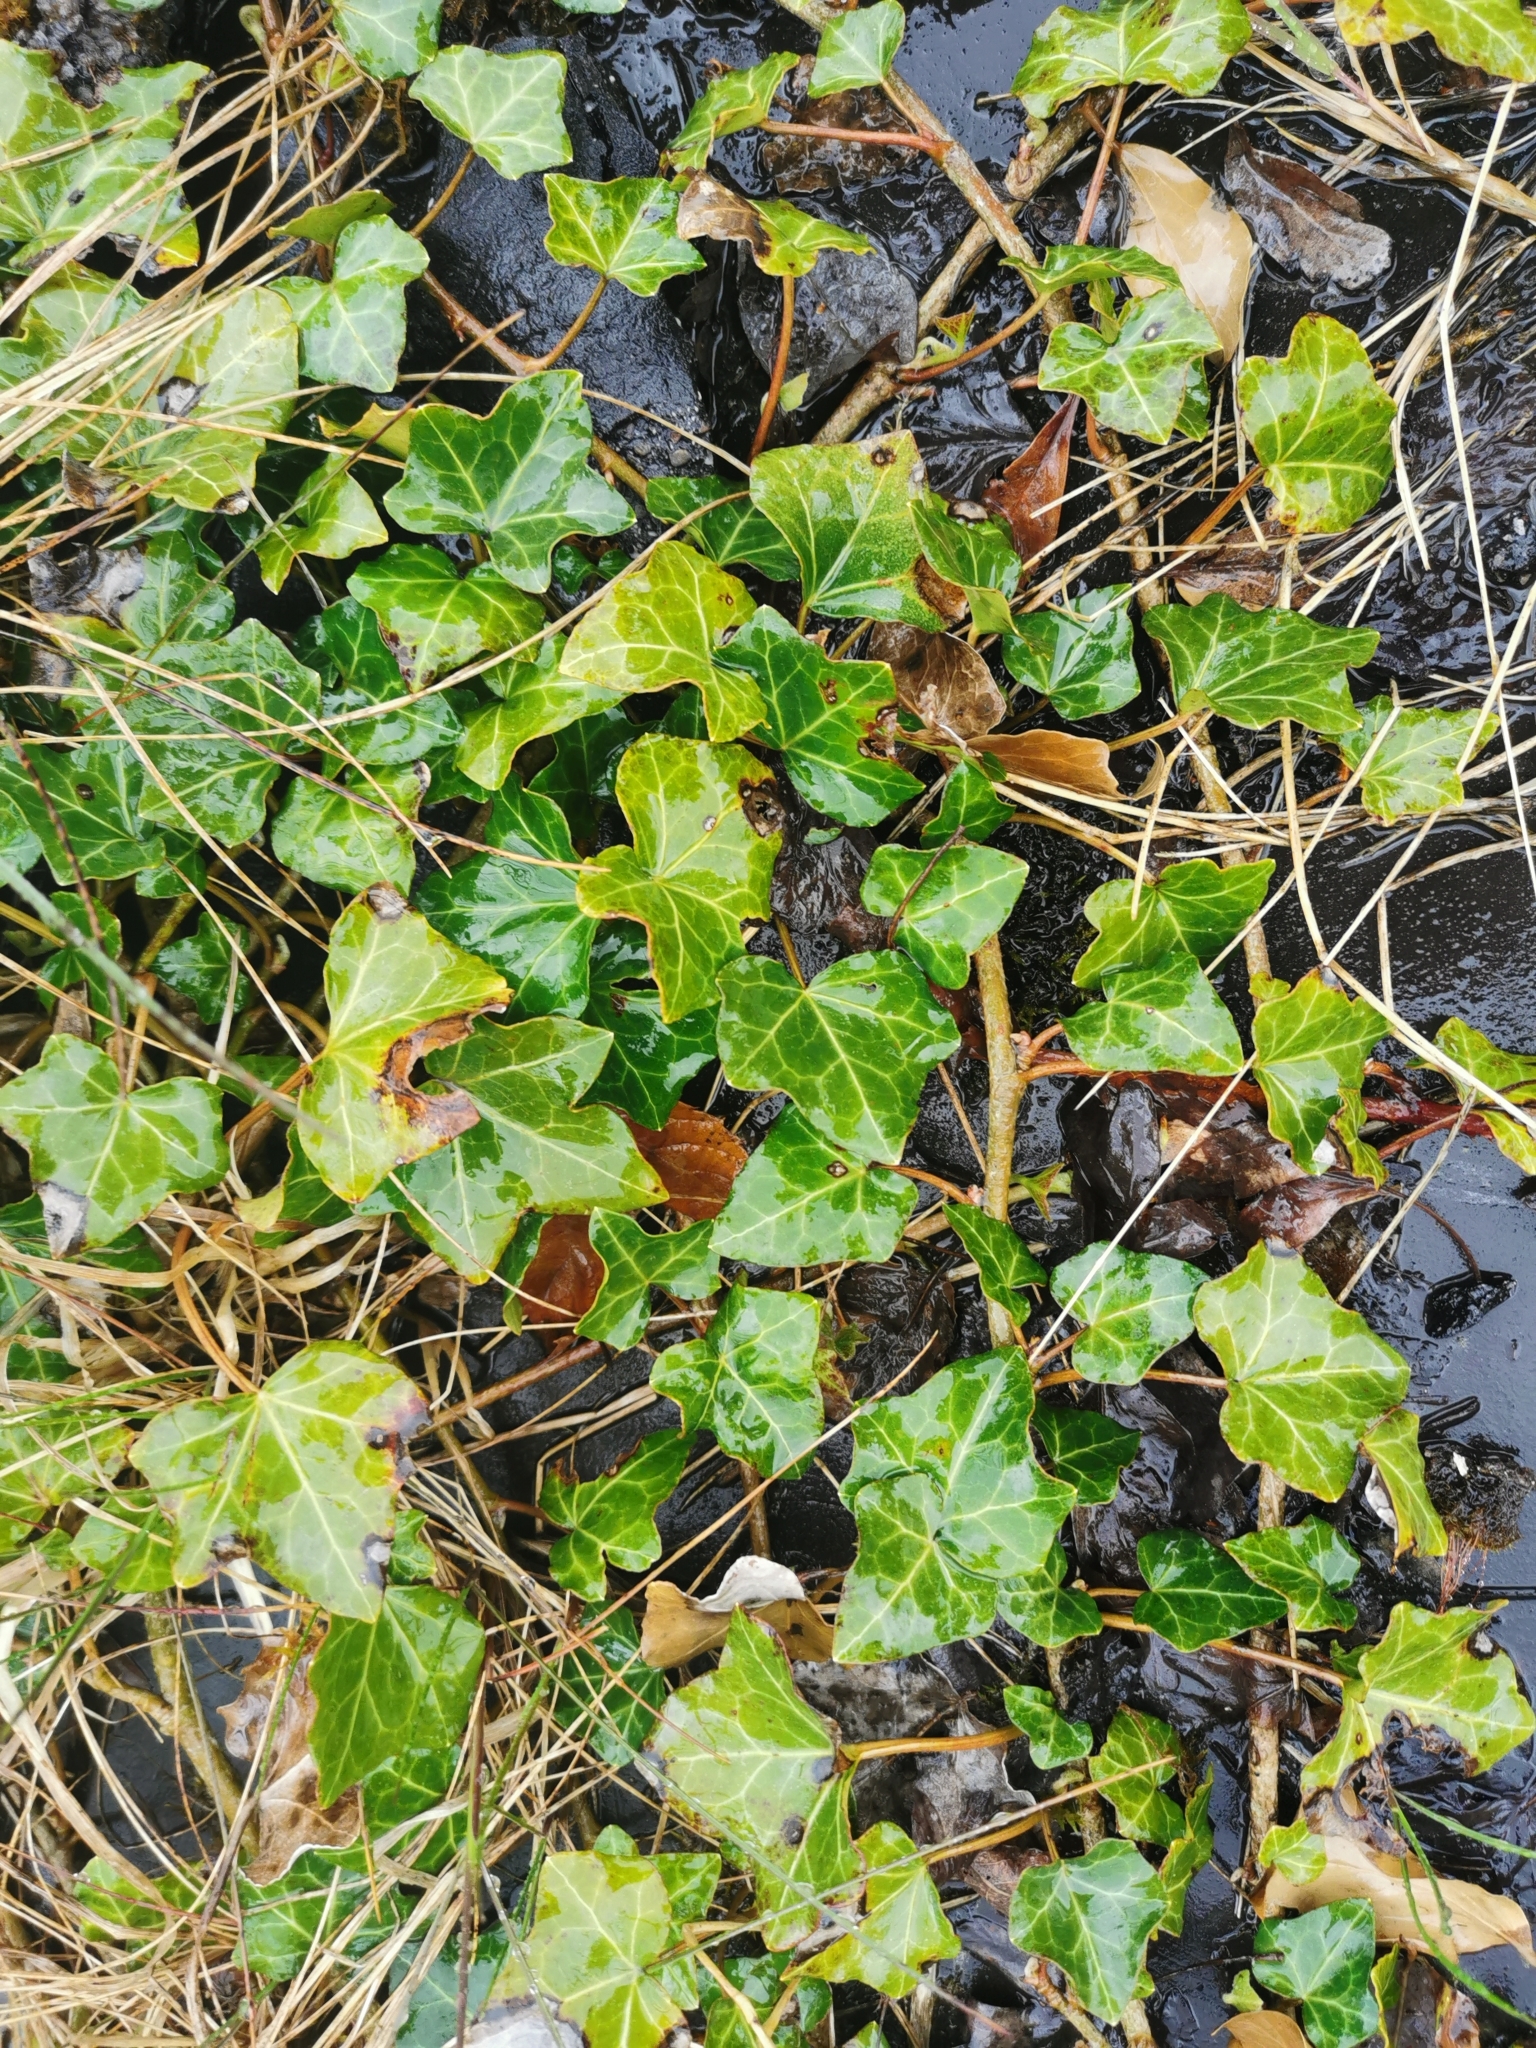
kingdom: Plantae
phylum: Tracheophyta
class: Magnoliopsida
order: Apiales
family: Araliaceae
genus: Hedera
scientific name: Hedera helix
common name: Ivy
